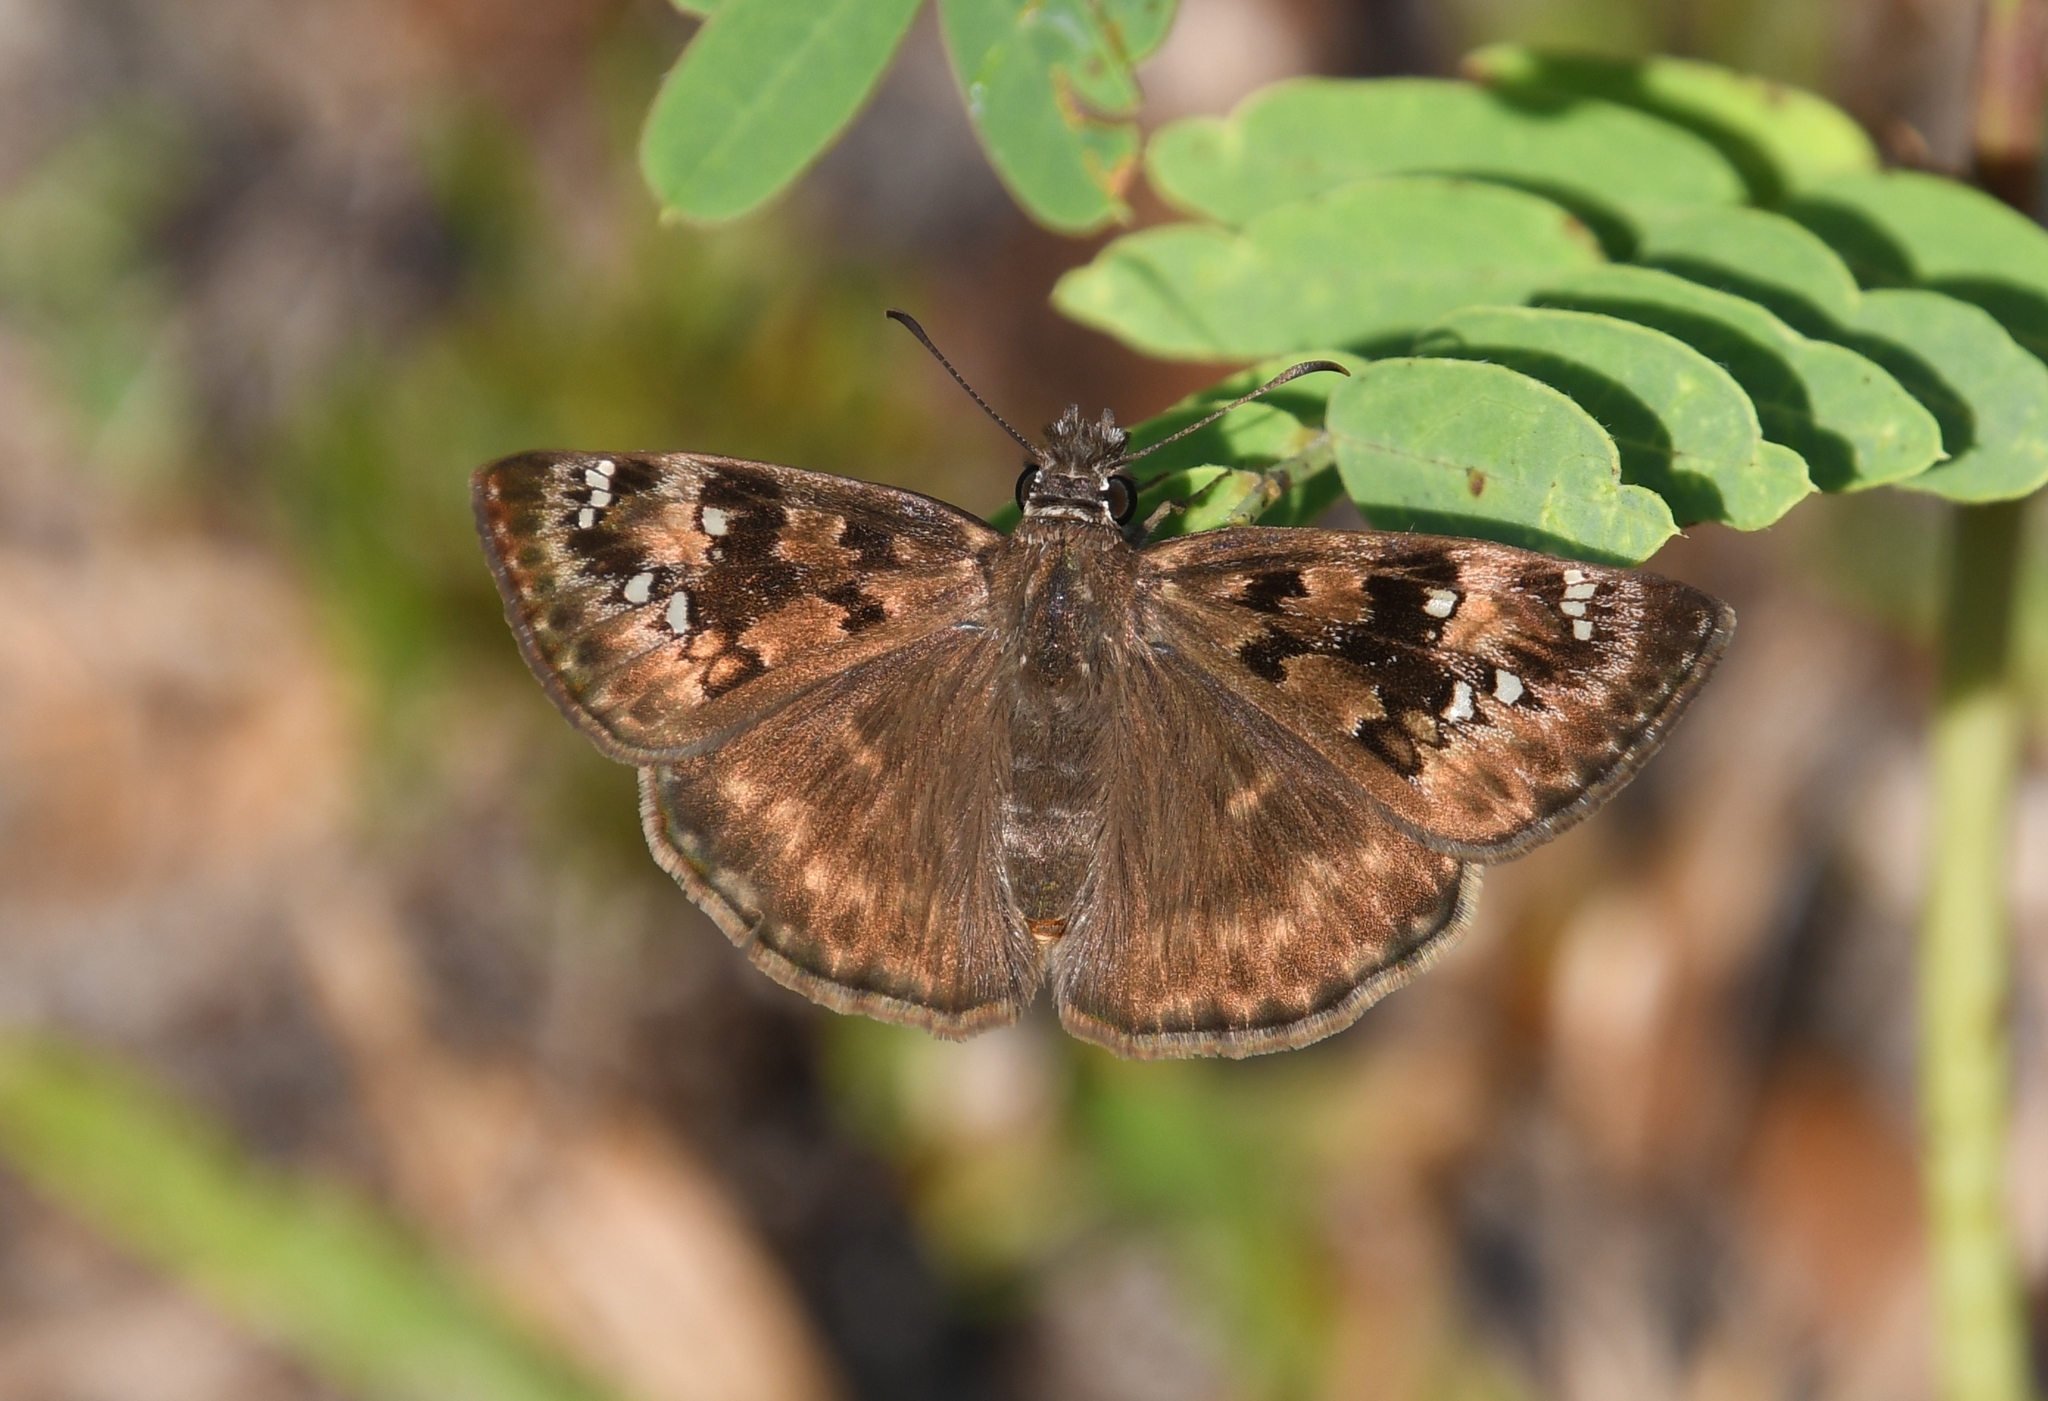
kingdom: Animalia
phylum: Arthropoda
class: Insecta
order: Lepidoptera
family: Hesperiidae
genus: Erynnis
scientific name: Erynnis horatius
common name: Horace's duskywing
